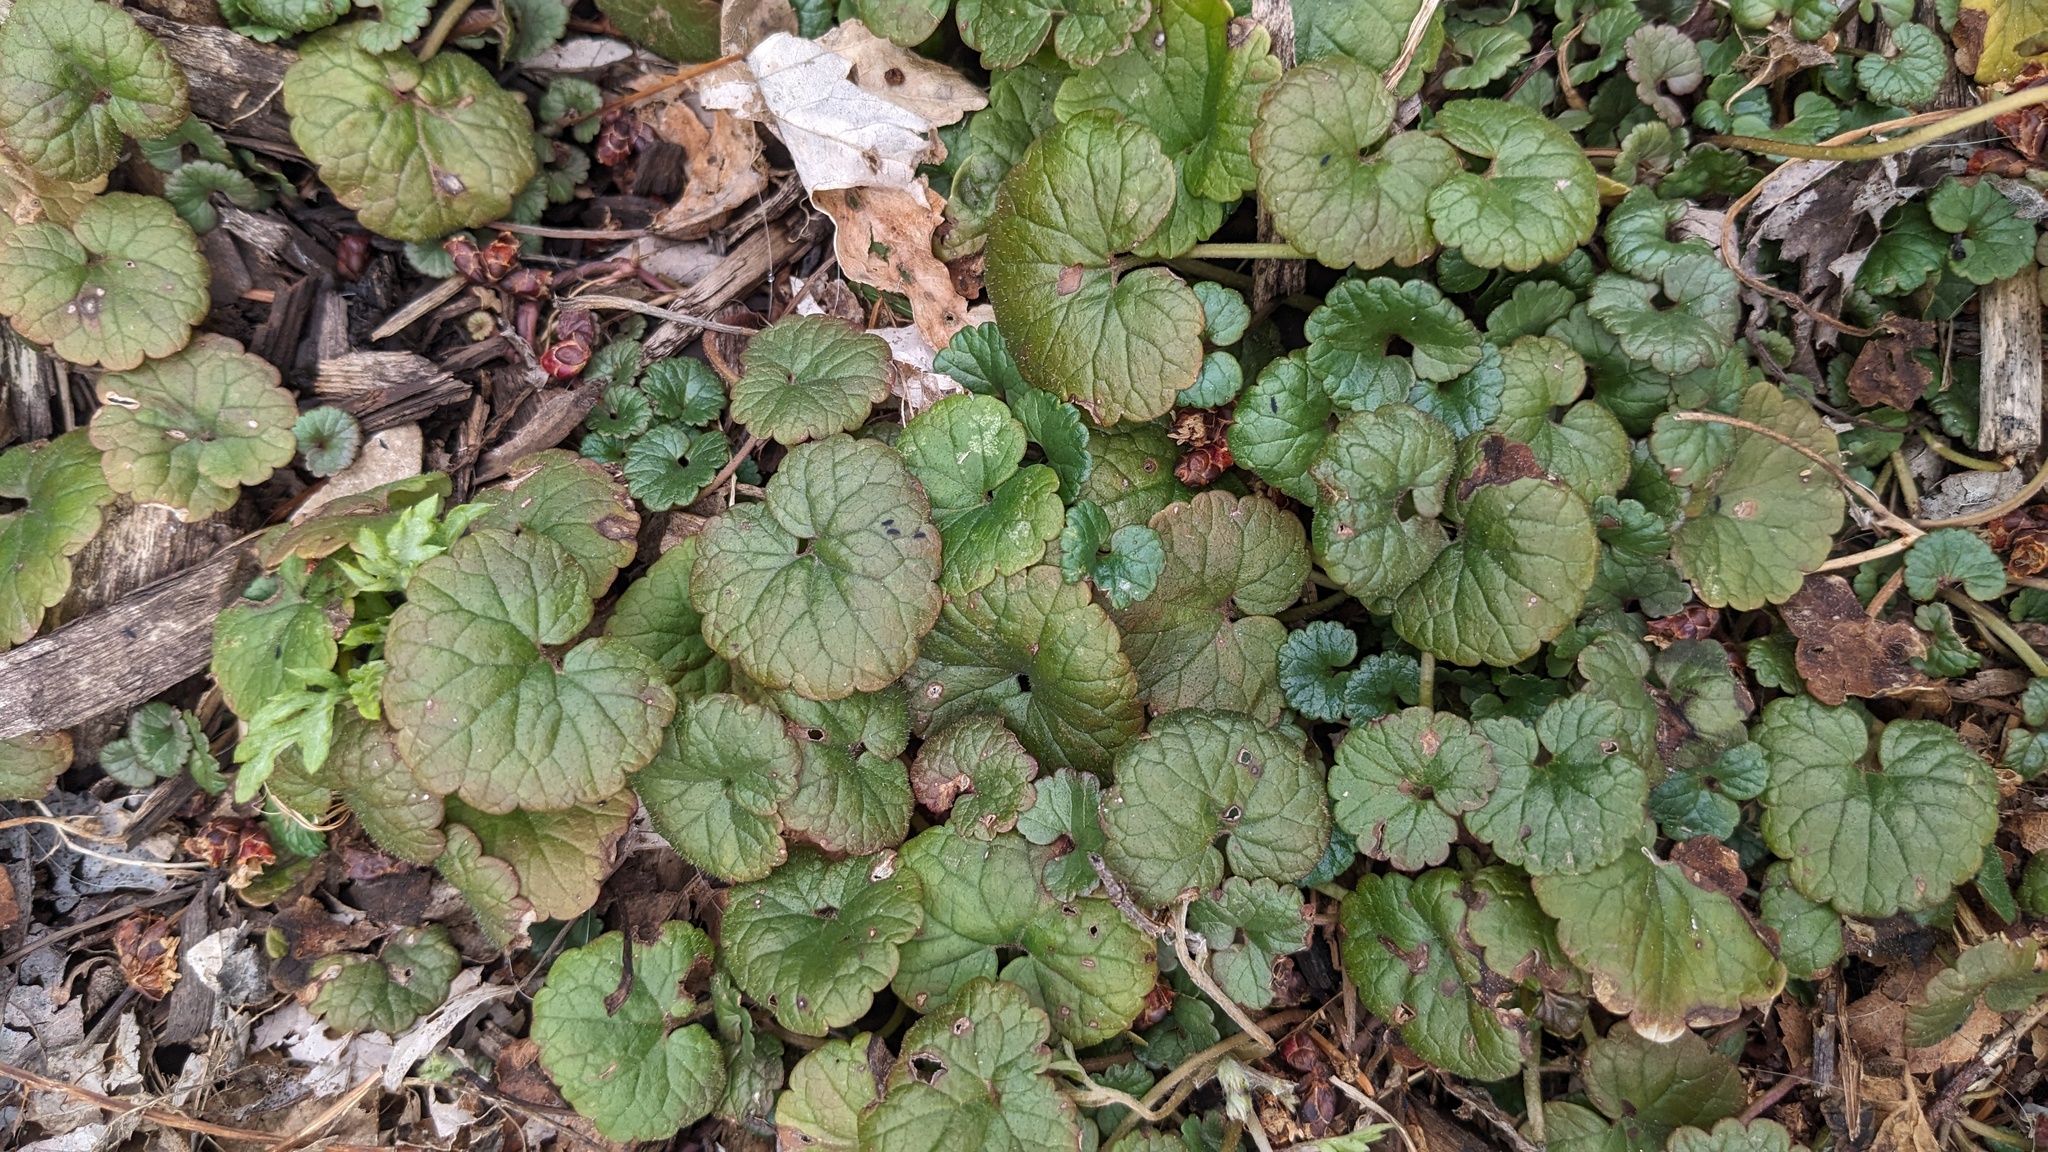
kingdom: Plantae
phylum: Tracheophyta
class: Magnoliopsida
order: Lamiales
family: Lamiaceae
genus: Glechoma
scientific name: Glechoma hederacea
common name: Ground ivy
